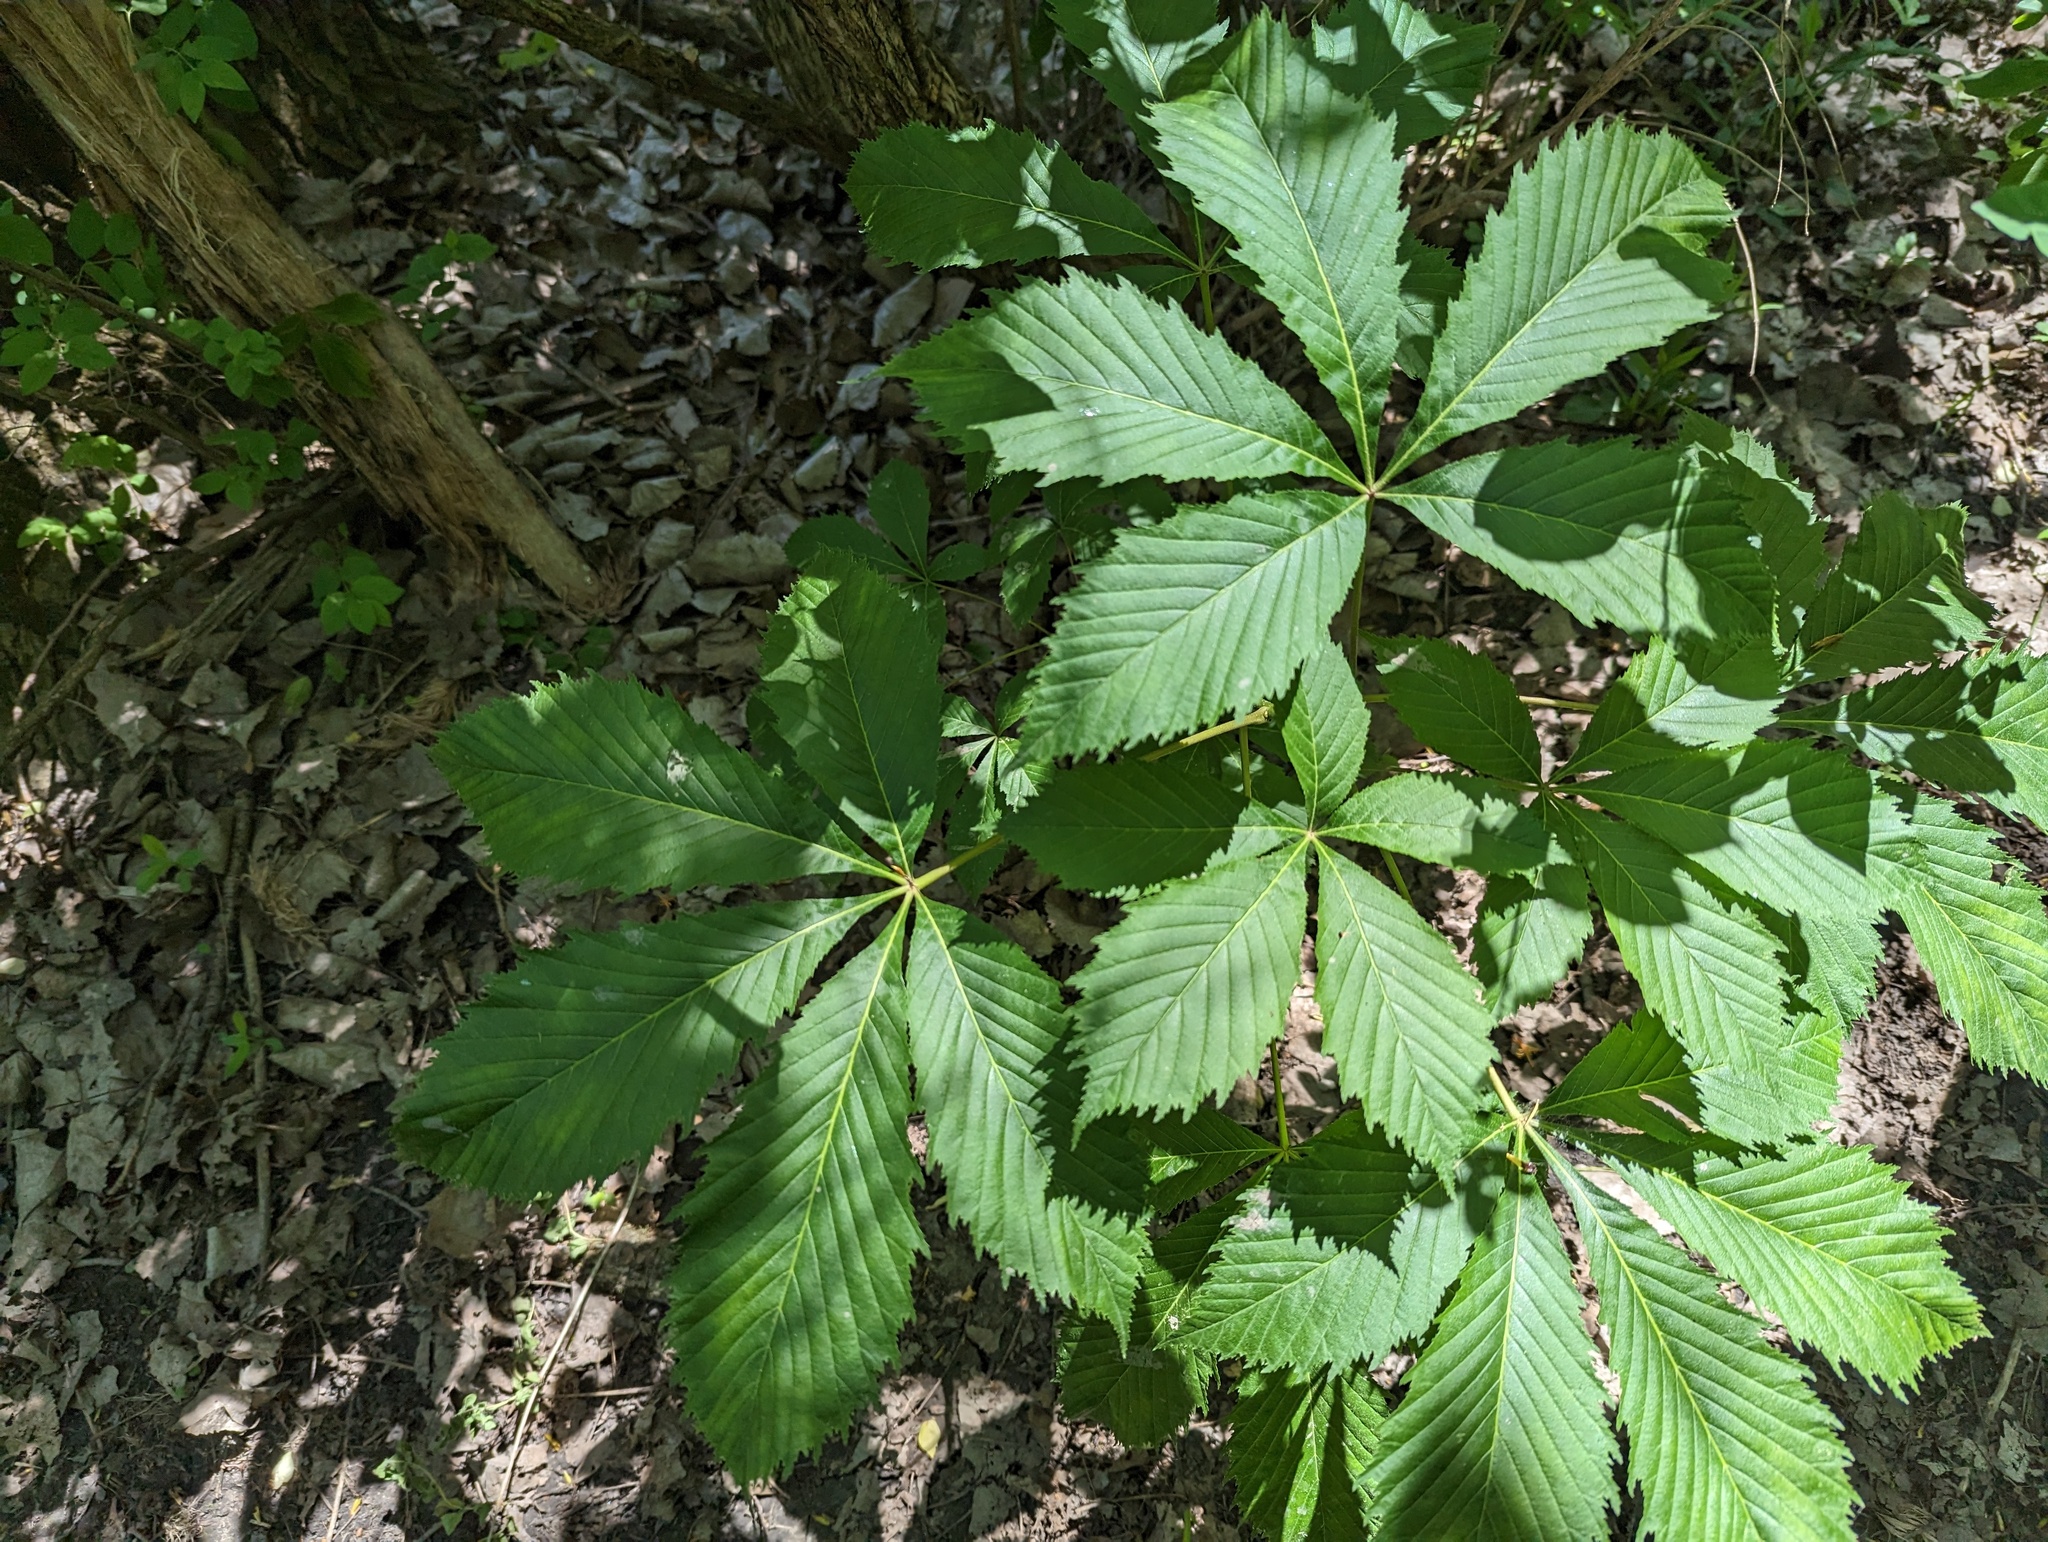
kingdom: Plantae
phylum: Tracheophyta
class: Magnoliopsida
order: Sapindales
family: Sapindaceae
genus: Aesculus
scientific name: Aesculus hippocastanum
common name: Horse-chestnut
